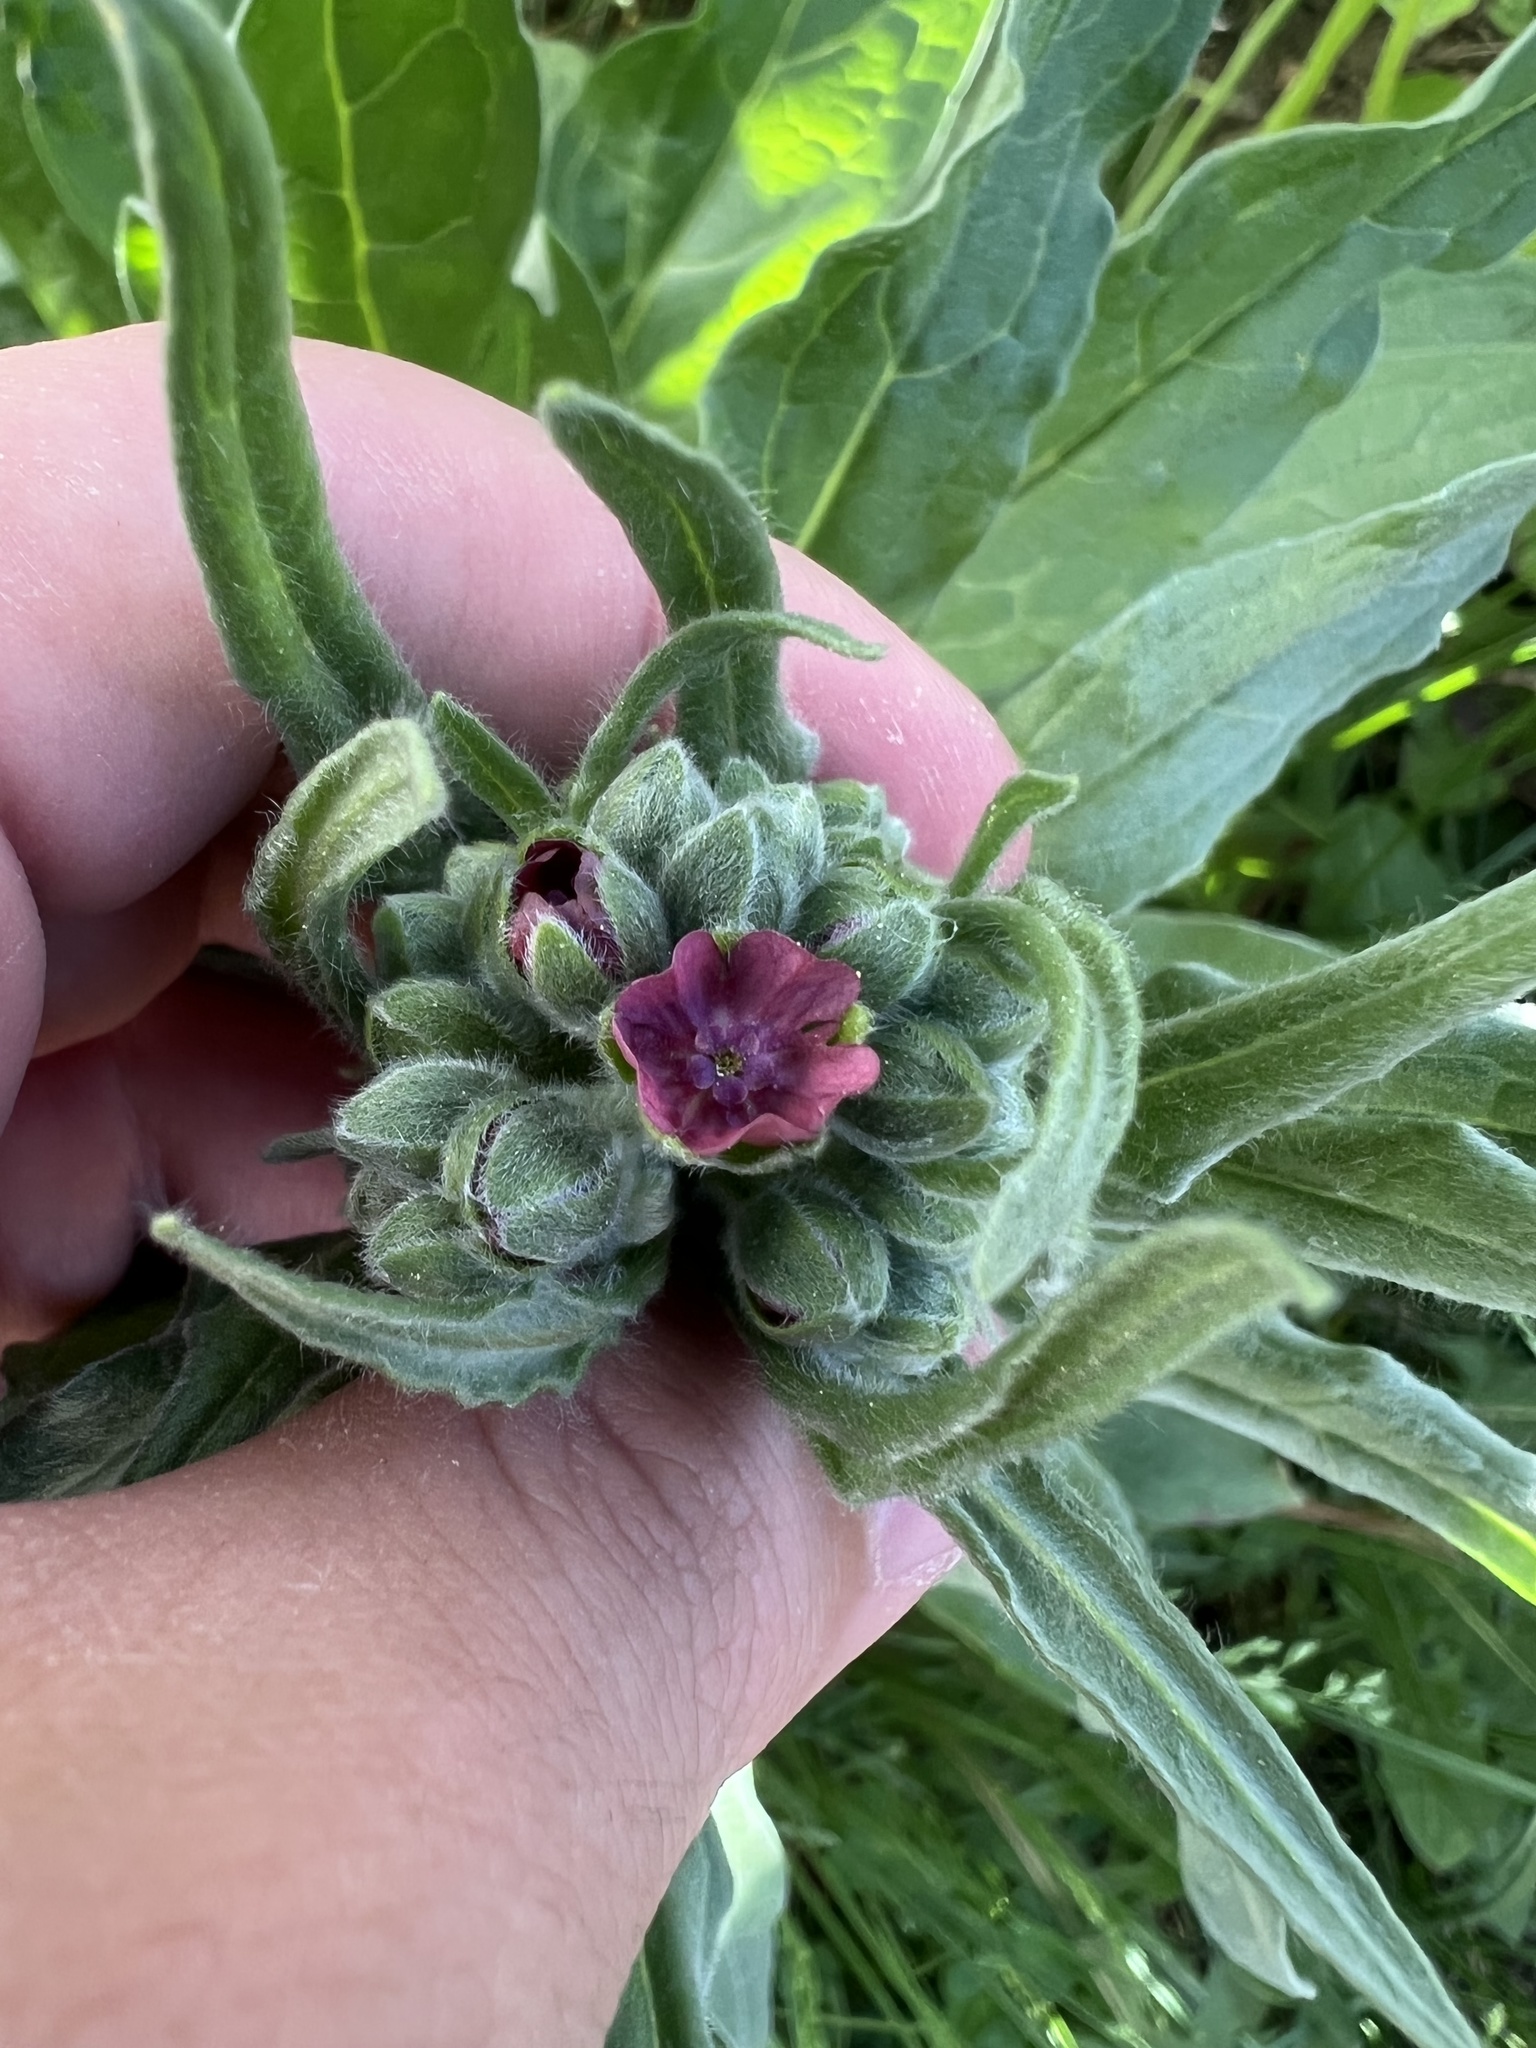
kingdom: Plantae
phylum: Tracheophyta
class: Magnoliopsida
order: Boraginales
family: Boraginaceae
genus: Cynoglossum
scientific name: Cynoglossum officinale
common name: Hound's-tongue
